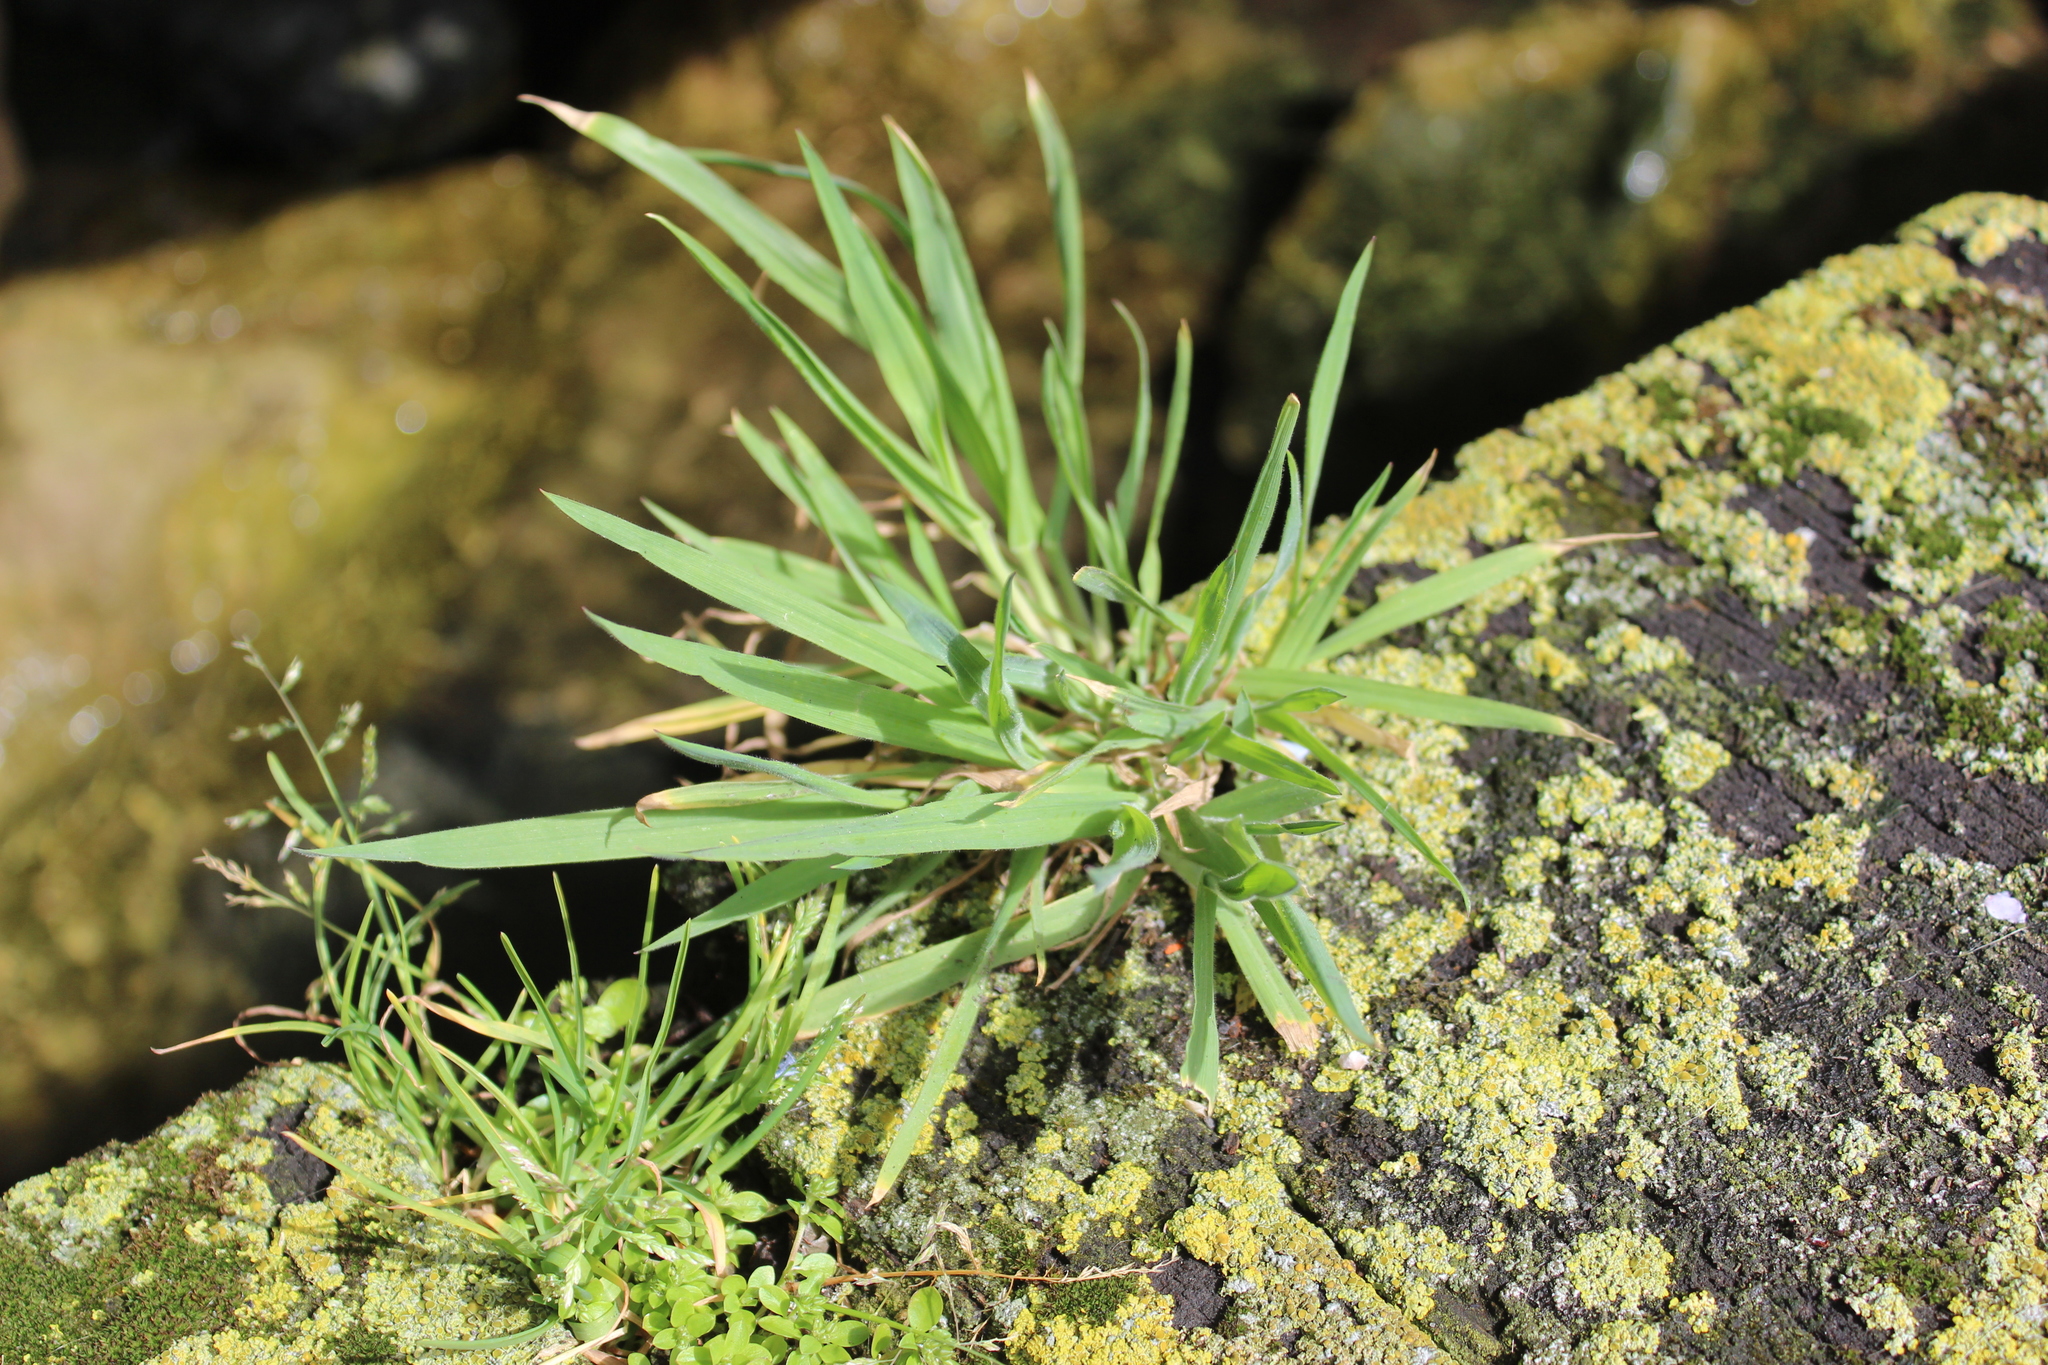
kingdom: Plantae
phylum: Tracheophyta
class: Liliopsida
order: Poales
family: Poaceae
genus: Holcus
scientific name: Holcus lanatus
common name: Yorkshire-fog
